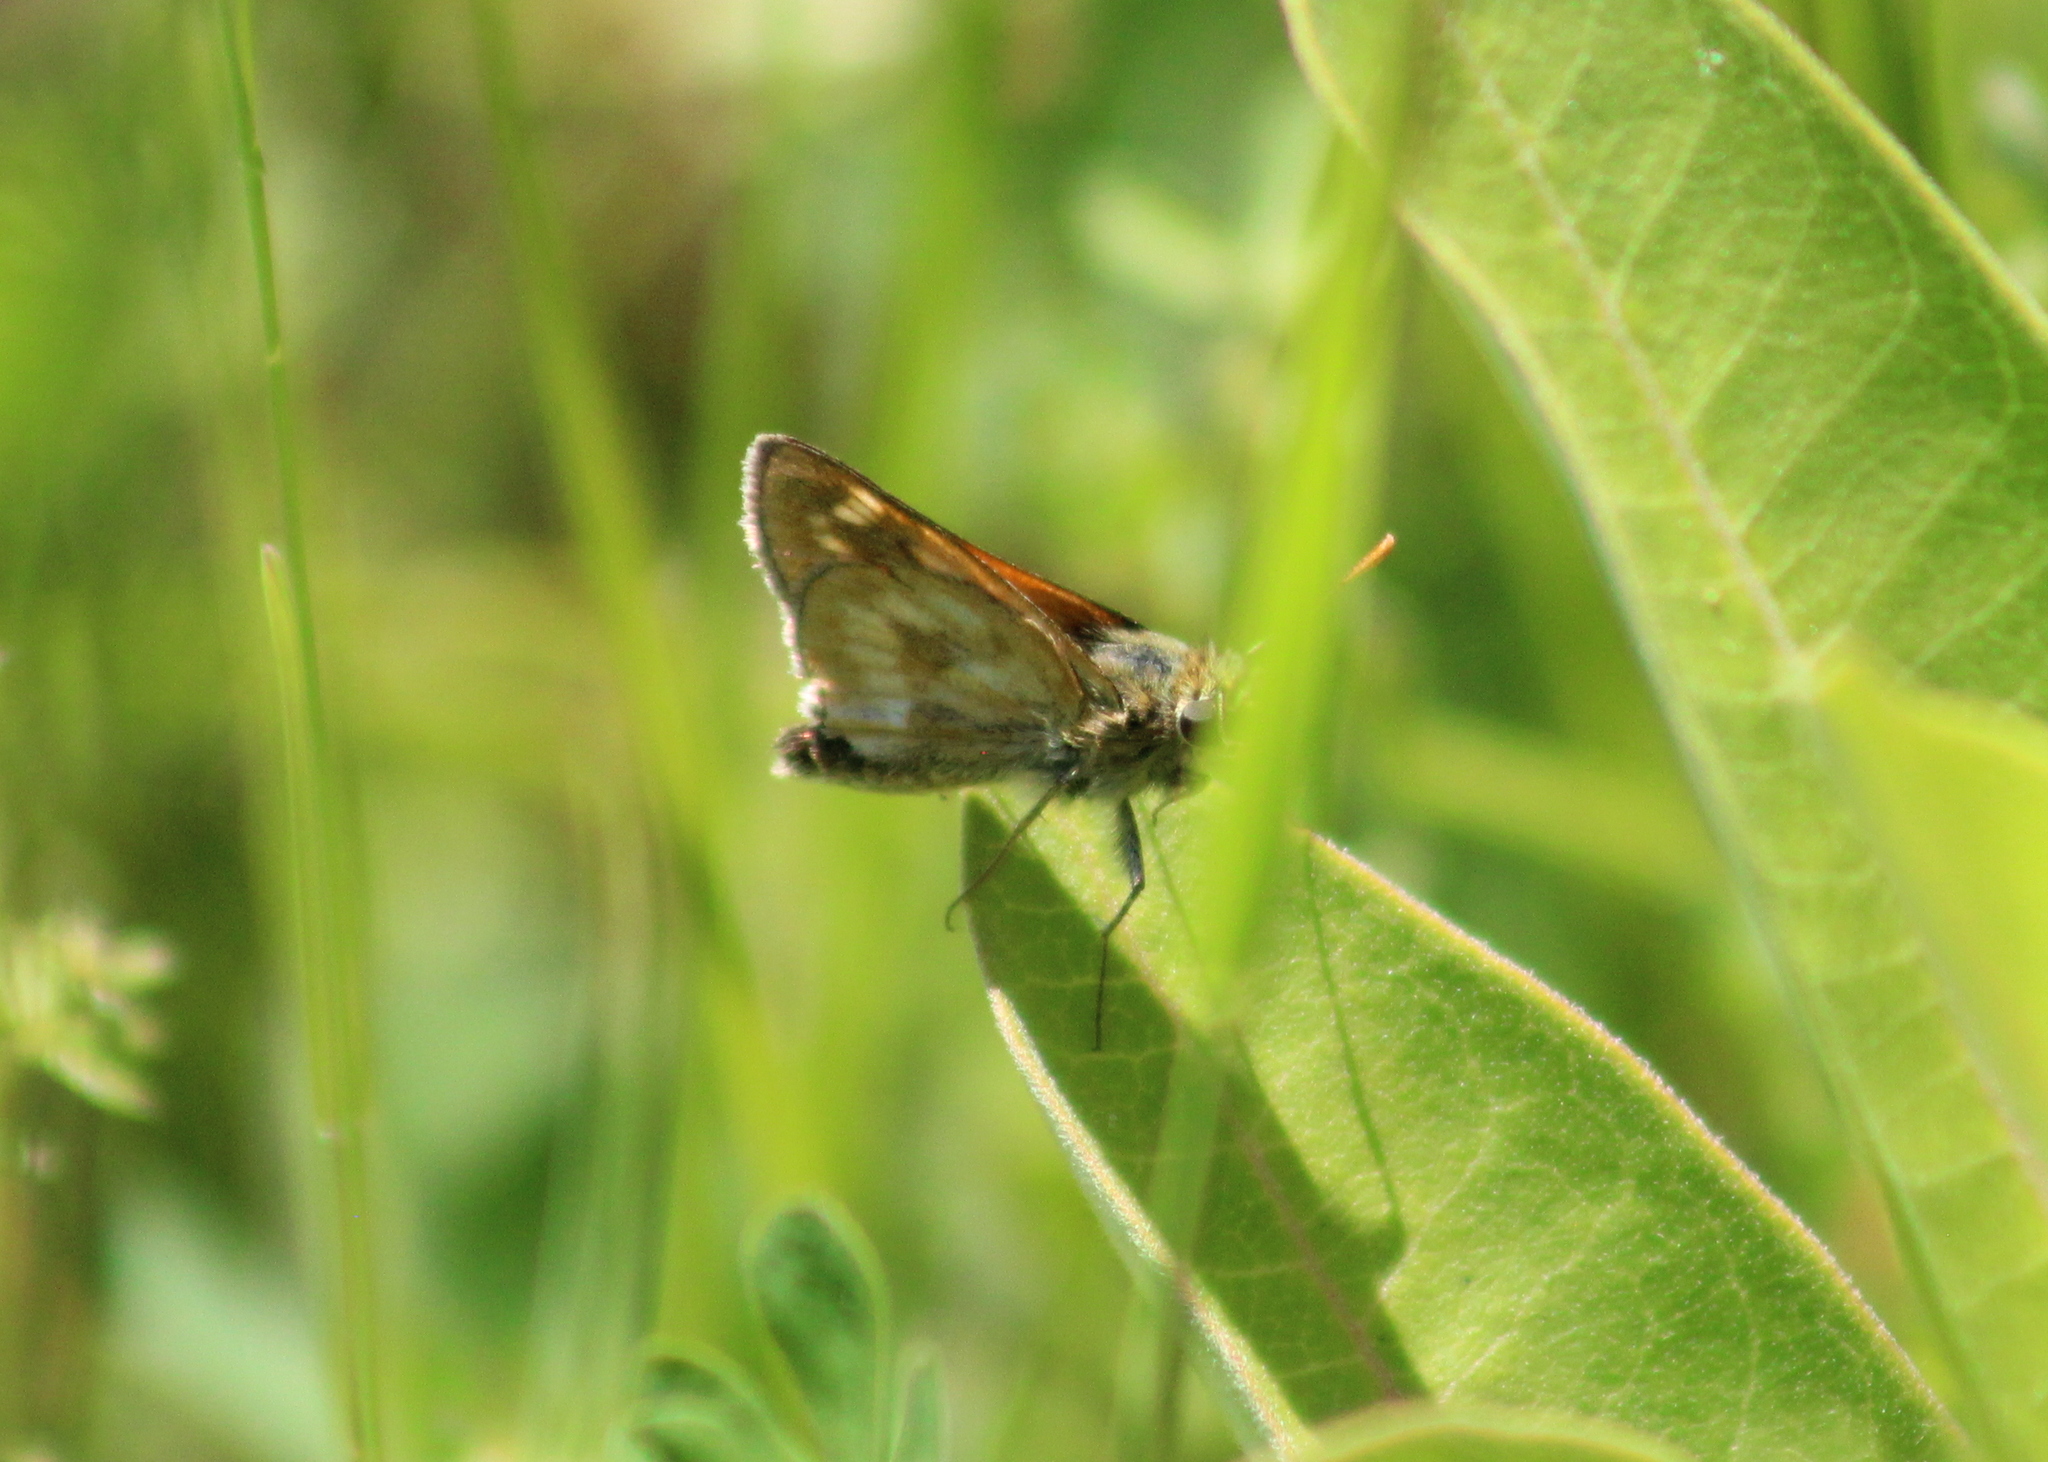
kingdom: Animalia
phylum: Arthropoda
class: Insecta
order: Lepidoptera
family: Hesperiidae
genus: Polites
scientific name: Polites mystic
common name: Long dash
